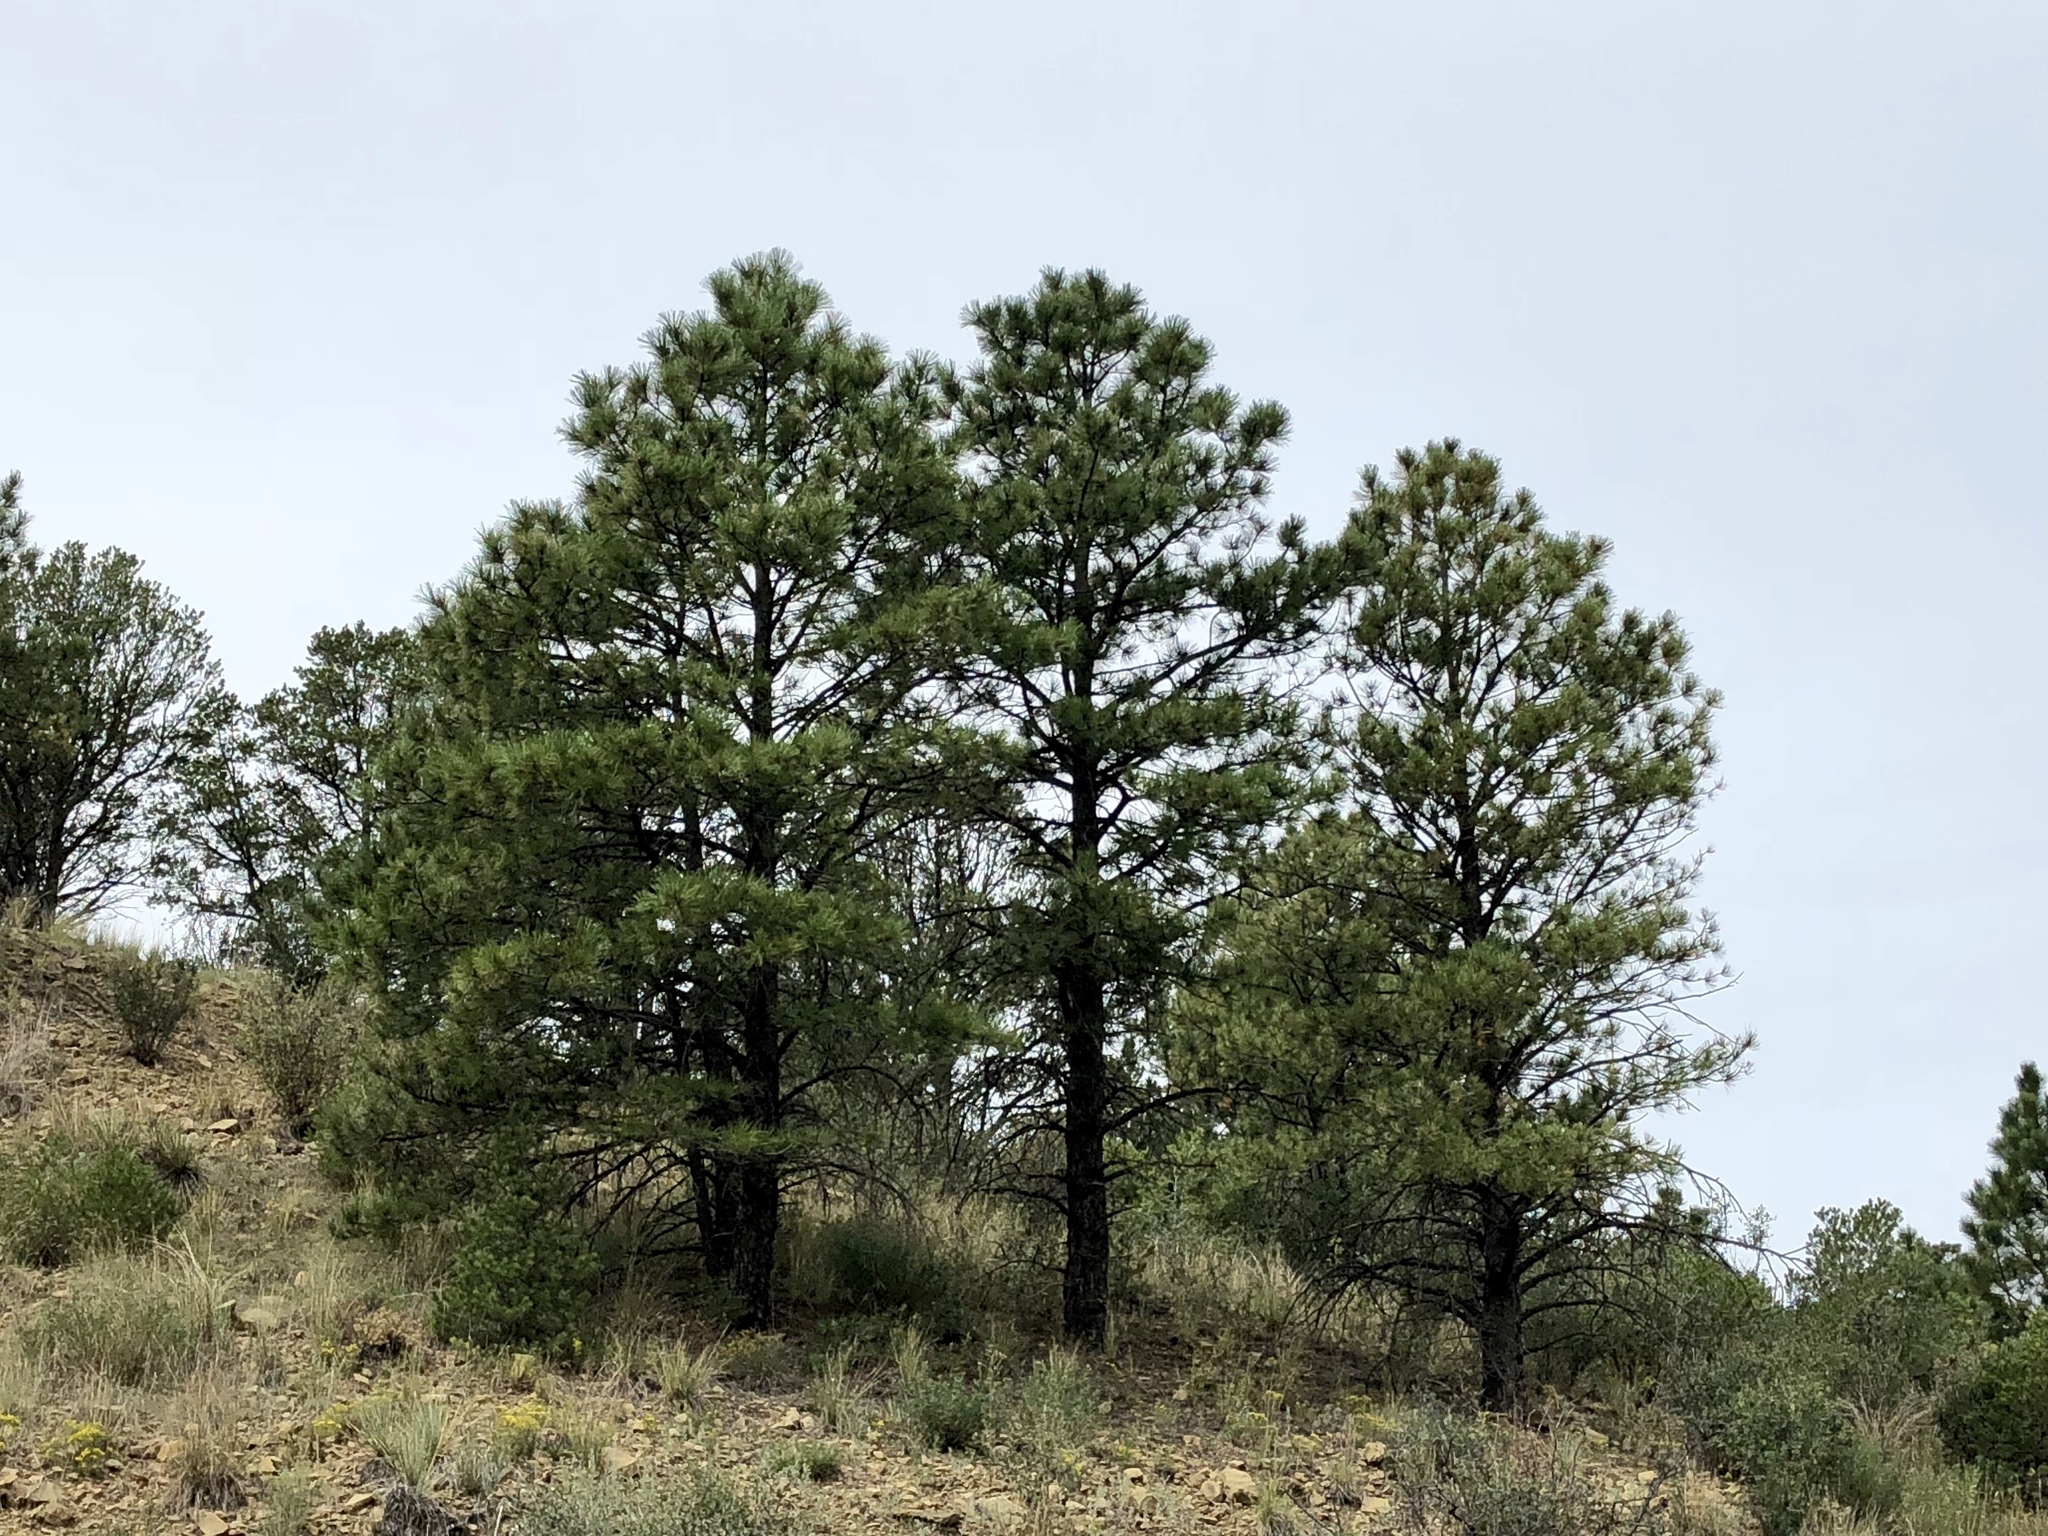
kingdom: Plantae
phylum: Tracheophyta
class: Pinopsida
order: Pinales
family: Pinaceae
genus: Pinus
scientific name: Pinus ponderosa
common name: Western yellow-pine
